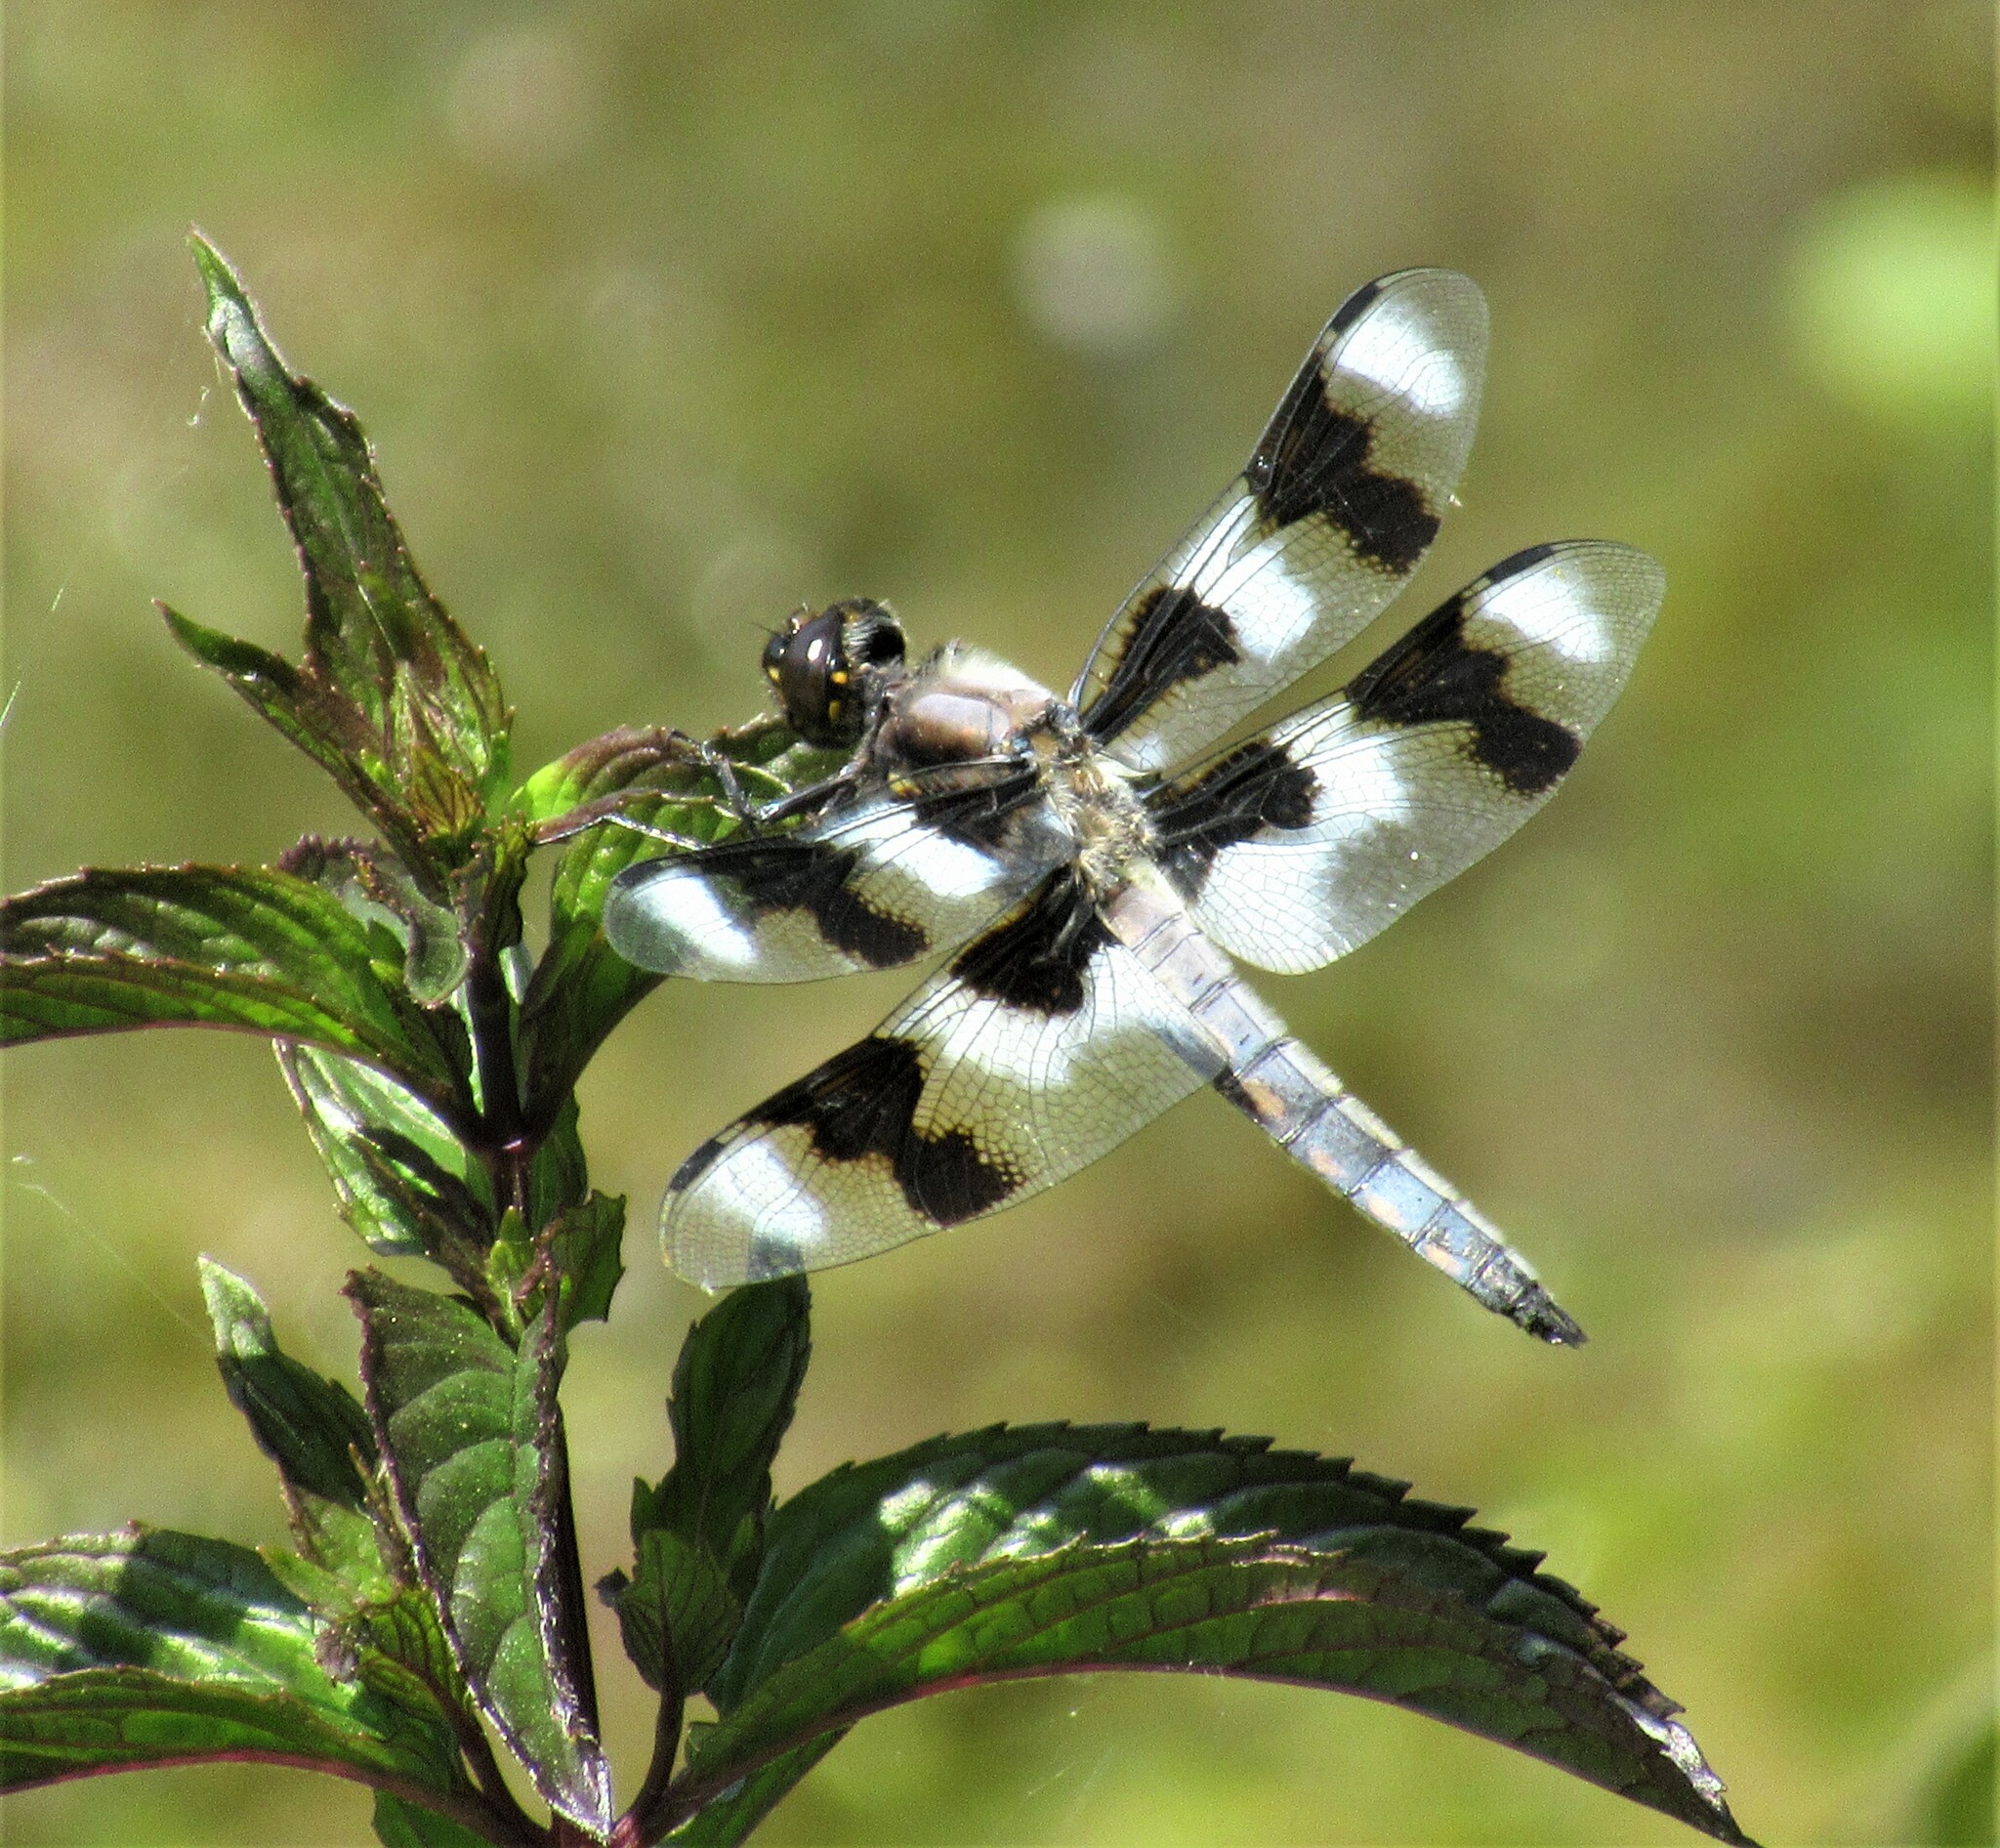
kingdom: Animalia
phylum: Arthropoda
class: Insecta
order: Odonata
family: Libellulidae
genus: Libellula
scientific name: Libellula forensis
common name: Eight-spotted skimmer
